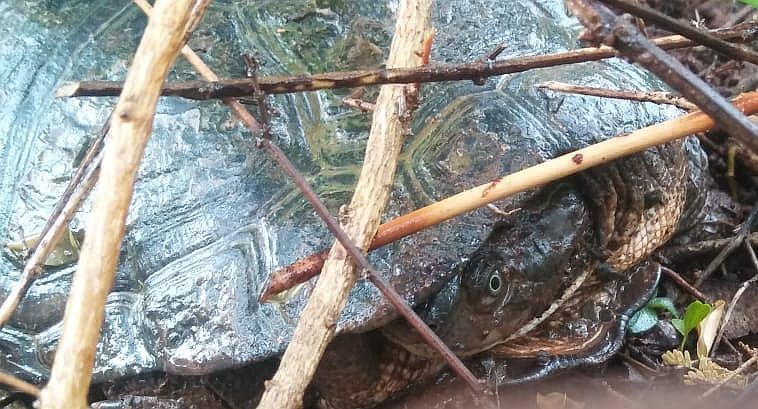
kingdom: Animalia
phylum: Chordata
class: Testudines
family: Pelomedusidae
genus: Pelomedusa
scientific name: Pelomedusa subrufa
